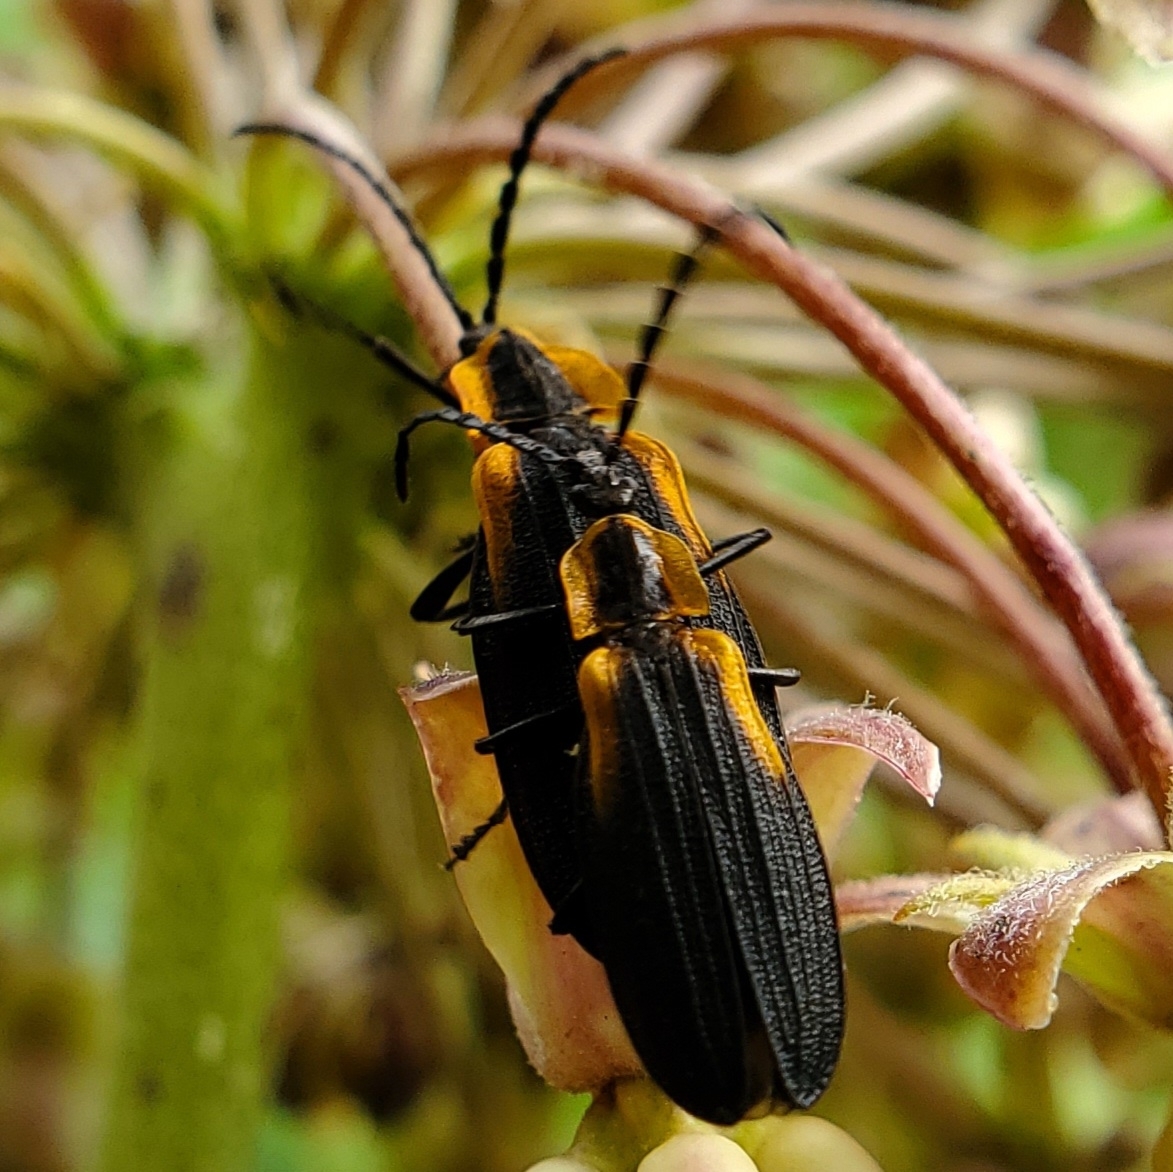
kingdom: Animalia
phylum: Arthropoda
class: Insecta
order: Coleoptera
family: Lycidae
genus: Lyconotus
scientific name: Lyconotus lateralis
